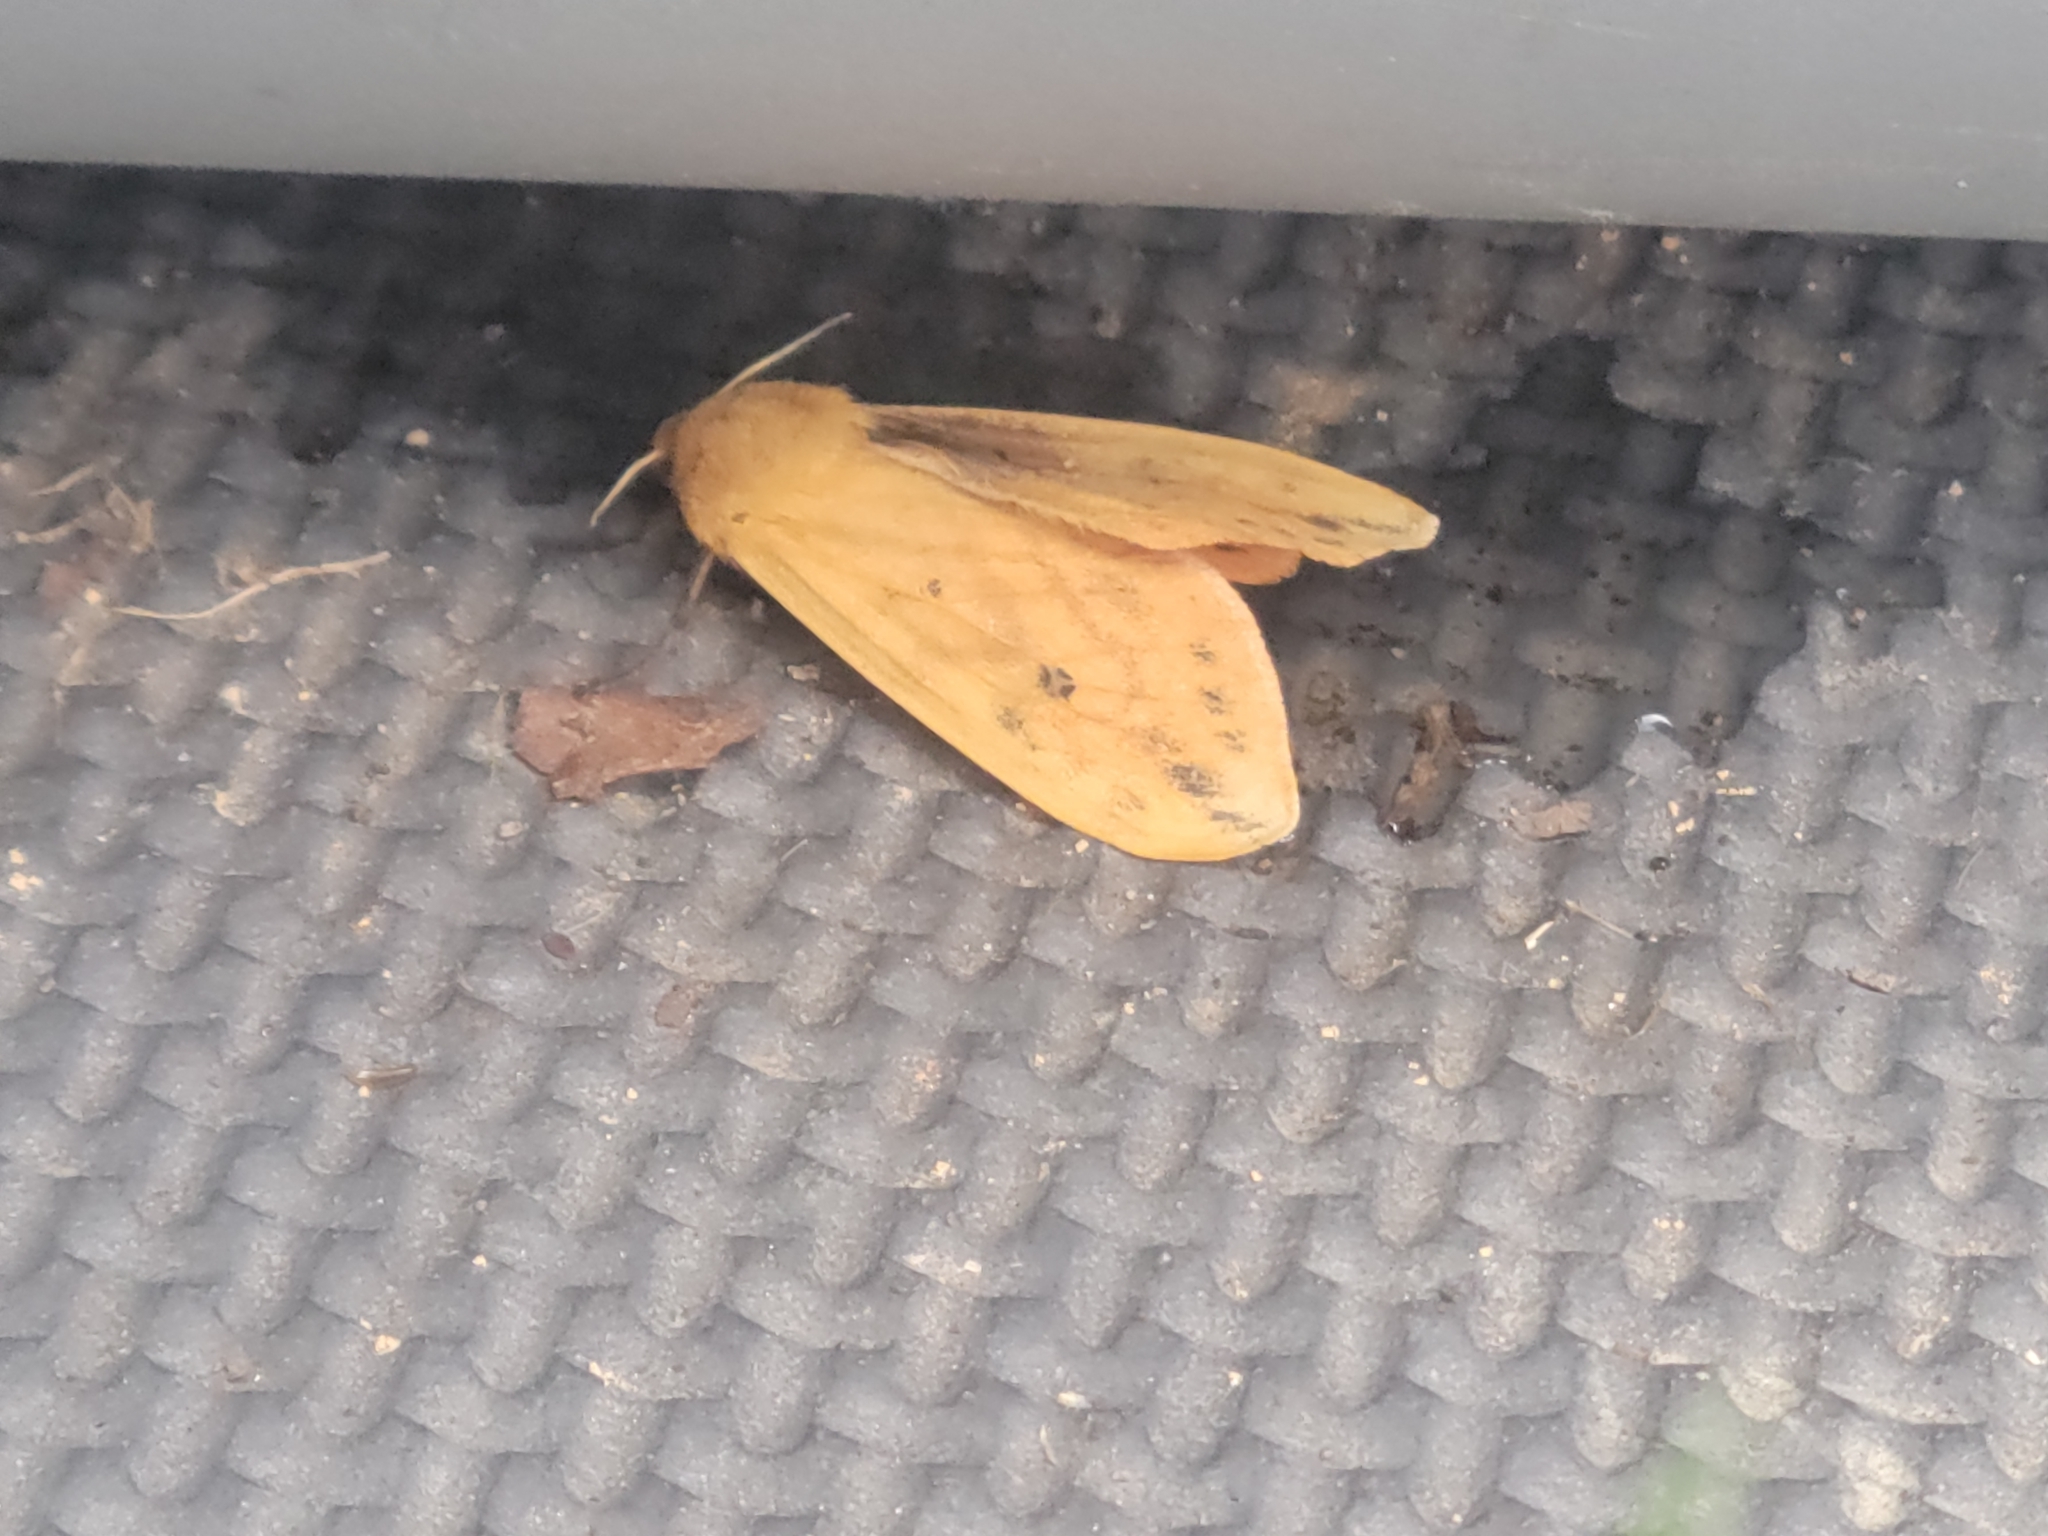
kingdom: Animalia
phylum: Arthropoda
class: Insecta
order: Lepidoptera
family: Erebidae
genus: Pyrrharctia
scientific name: Pyrrharctia isabella
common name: Isabella tiger moth
